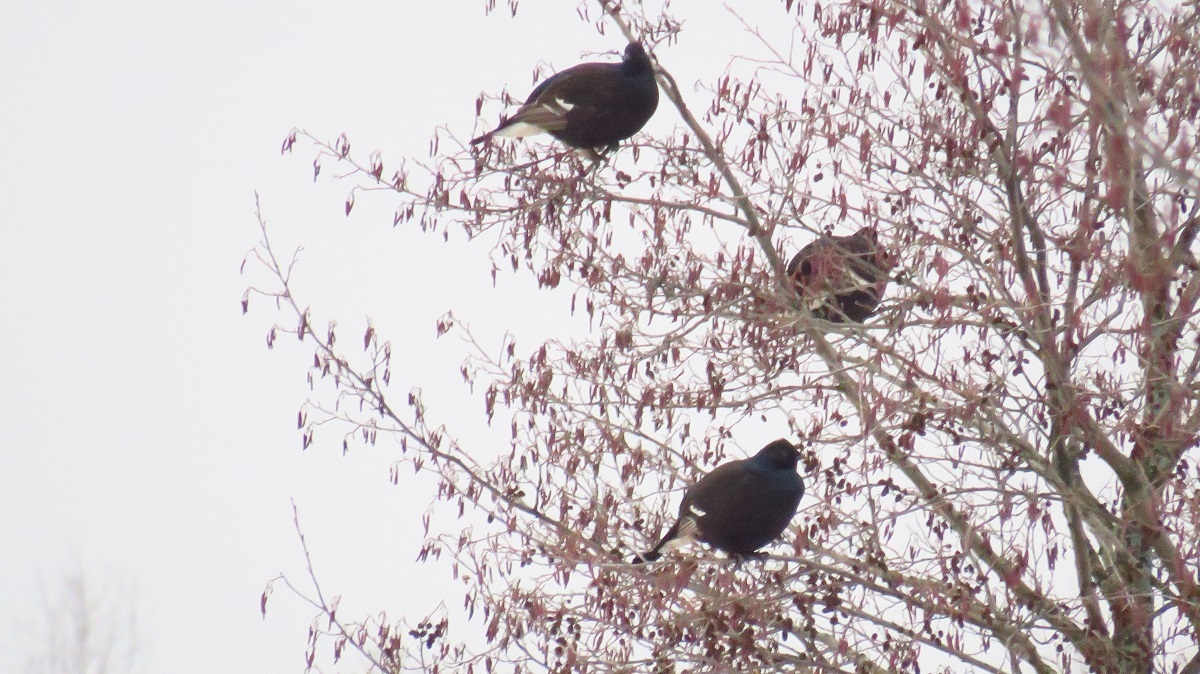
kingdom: Animalia
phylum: Chordata
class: Aves
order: Galliformes
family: Phasianidae
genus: Lyrurus
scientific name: Lyrurus tetrix
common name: Black grouse
